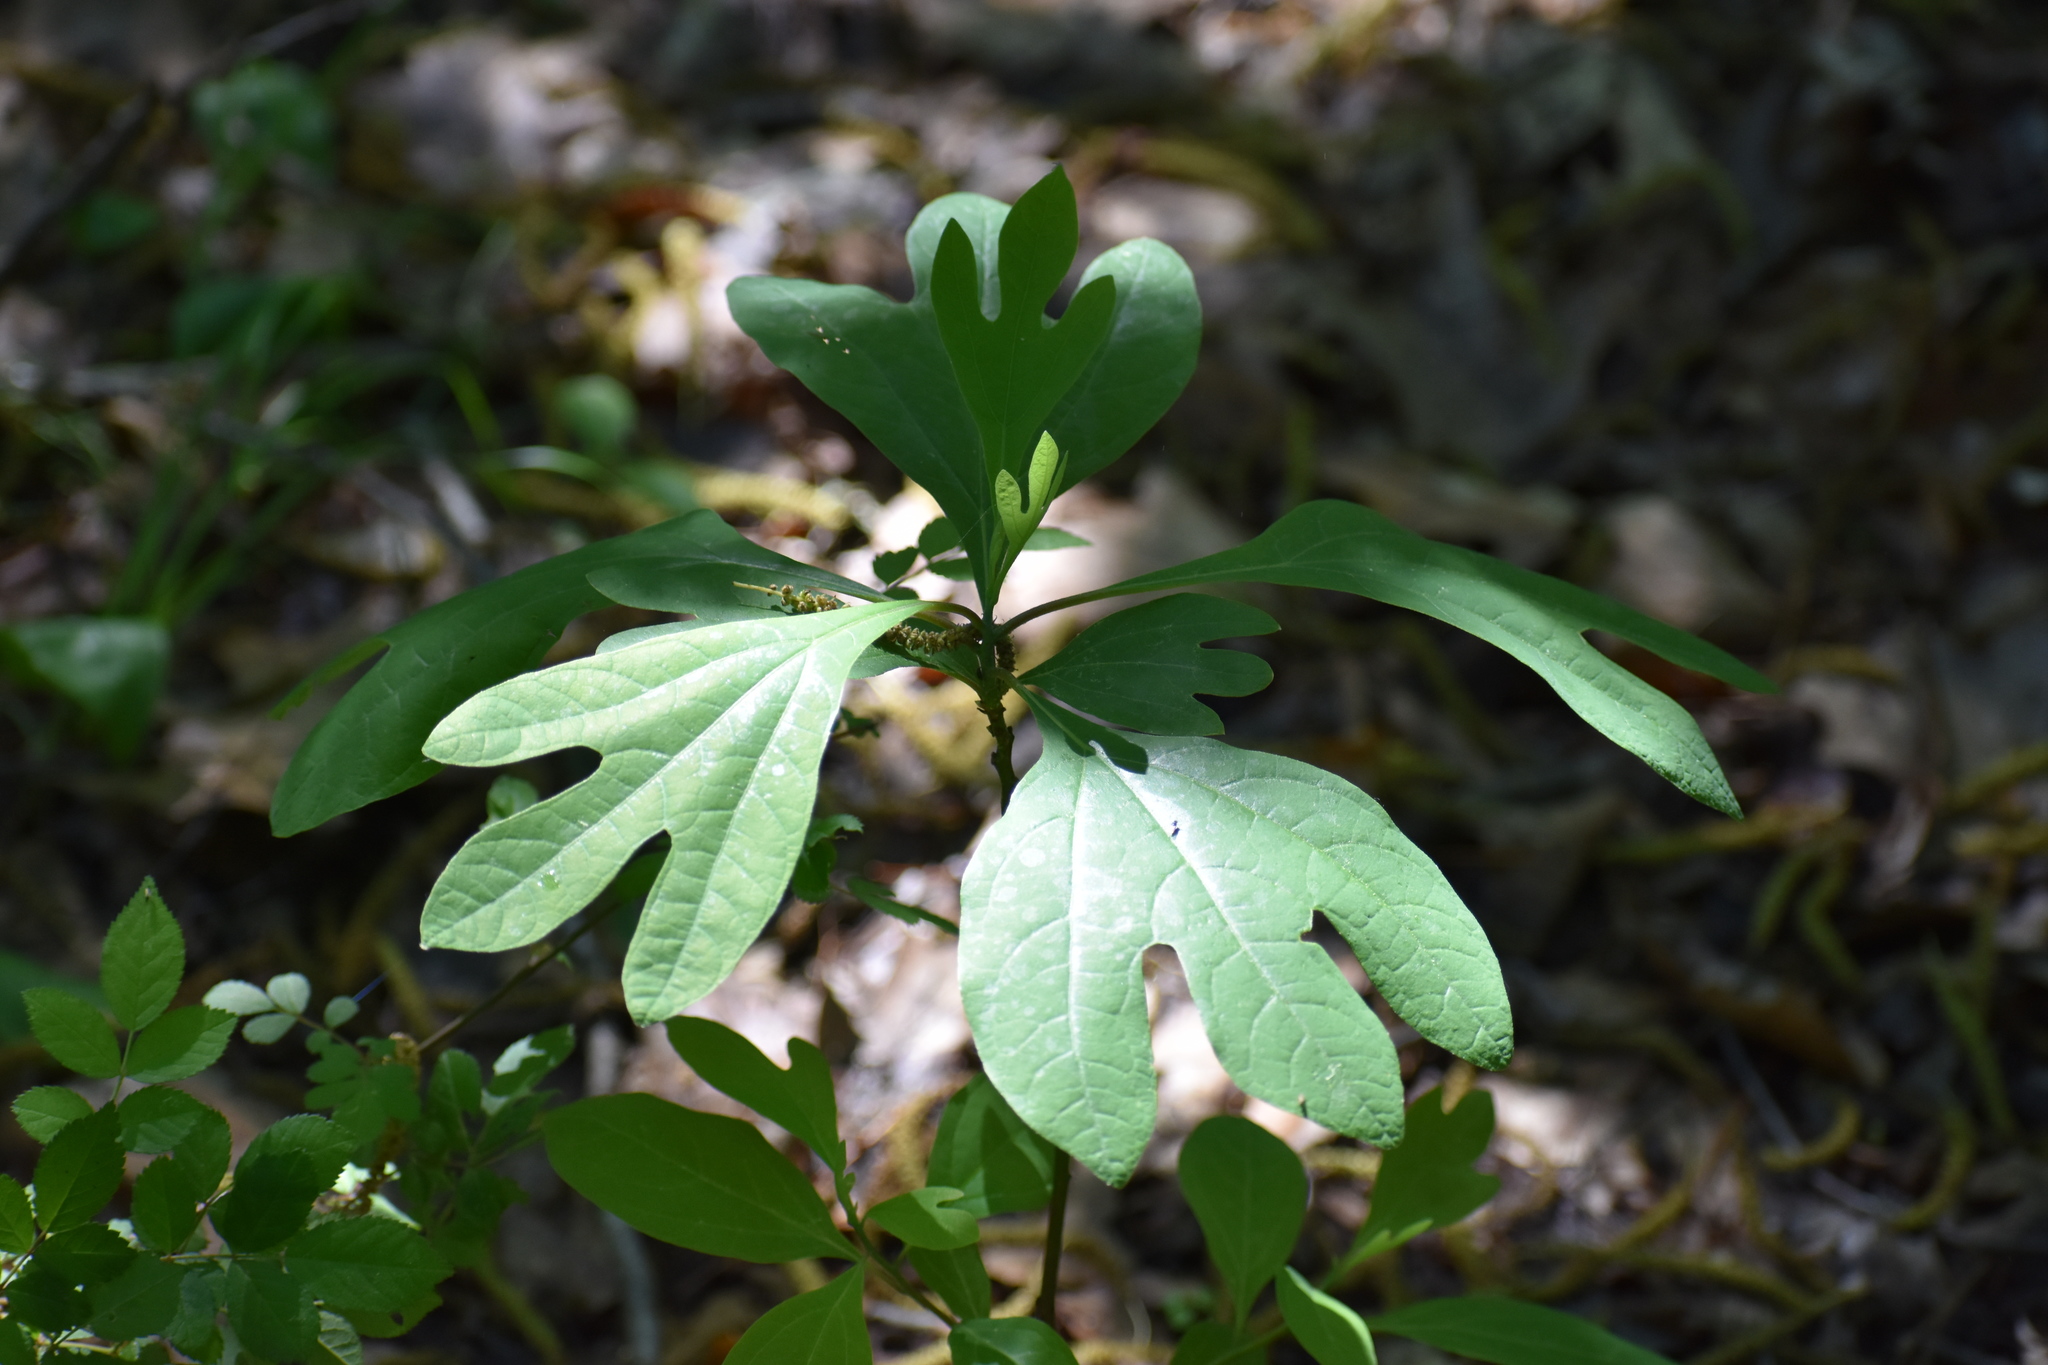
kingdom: Plantae
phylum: Tracheophyta
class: Magnoliopsida
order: Laurales
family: Lauraceae
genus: Sassafras
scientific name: Sassafras albidum
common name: Sassafras
